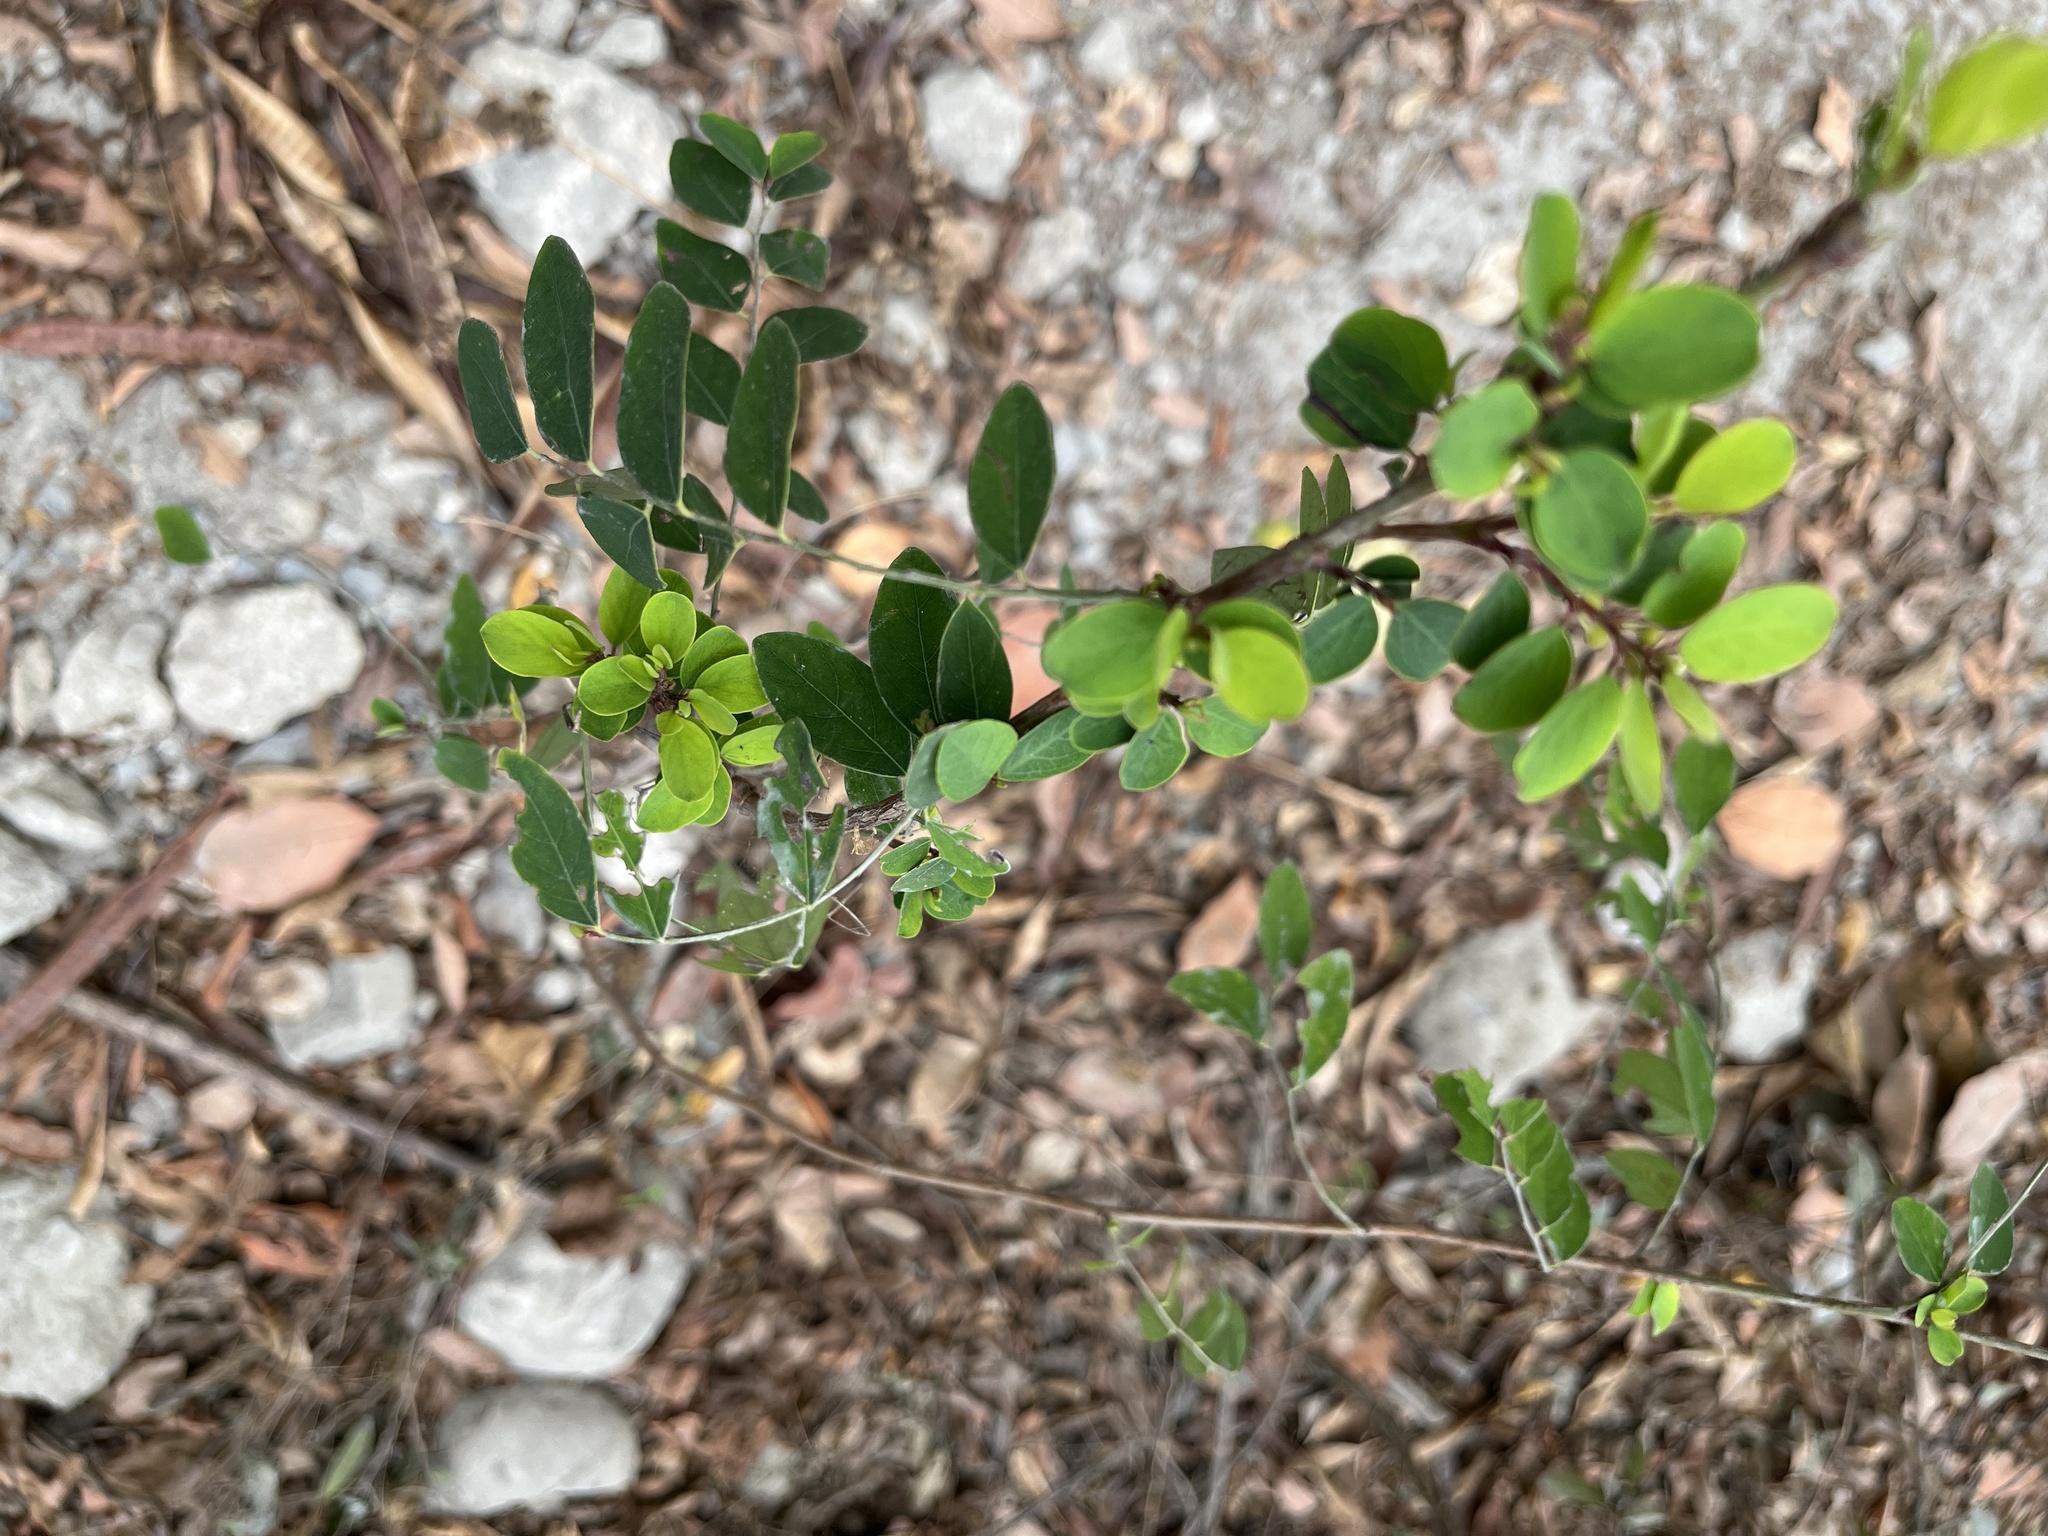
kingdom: Plantae
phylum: Tracheophyta
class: Magnoliopsida
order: Malpighiales
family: Phyllanthaceae
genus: Breynia
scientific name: Breynia vitis-idaea
